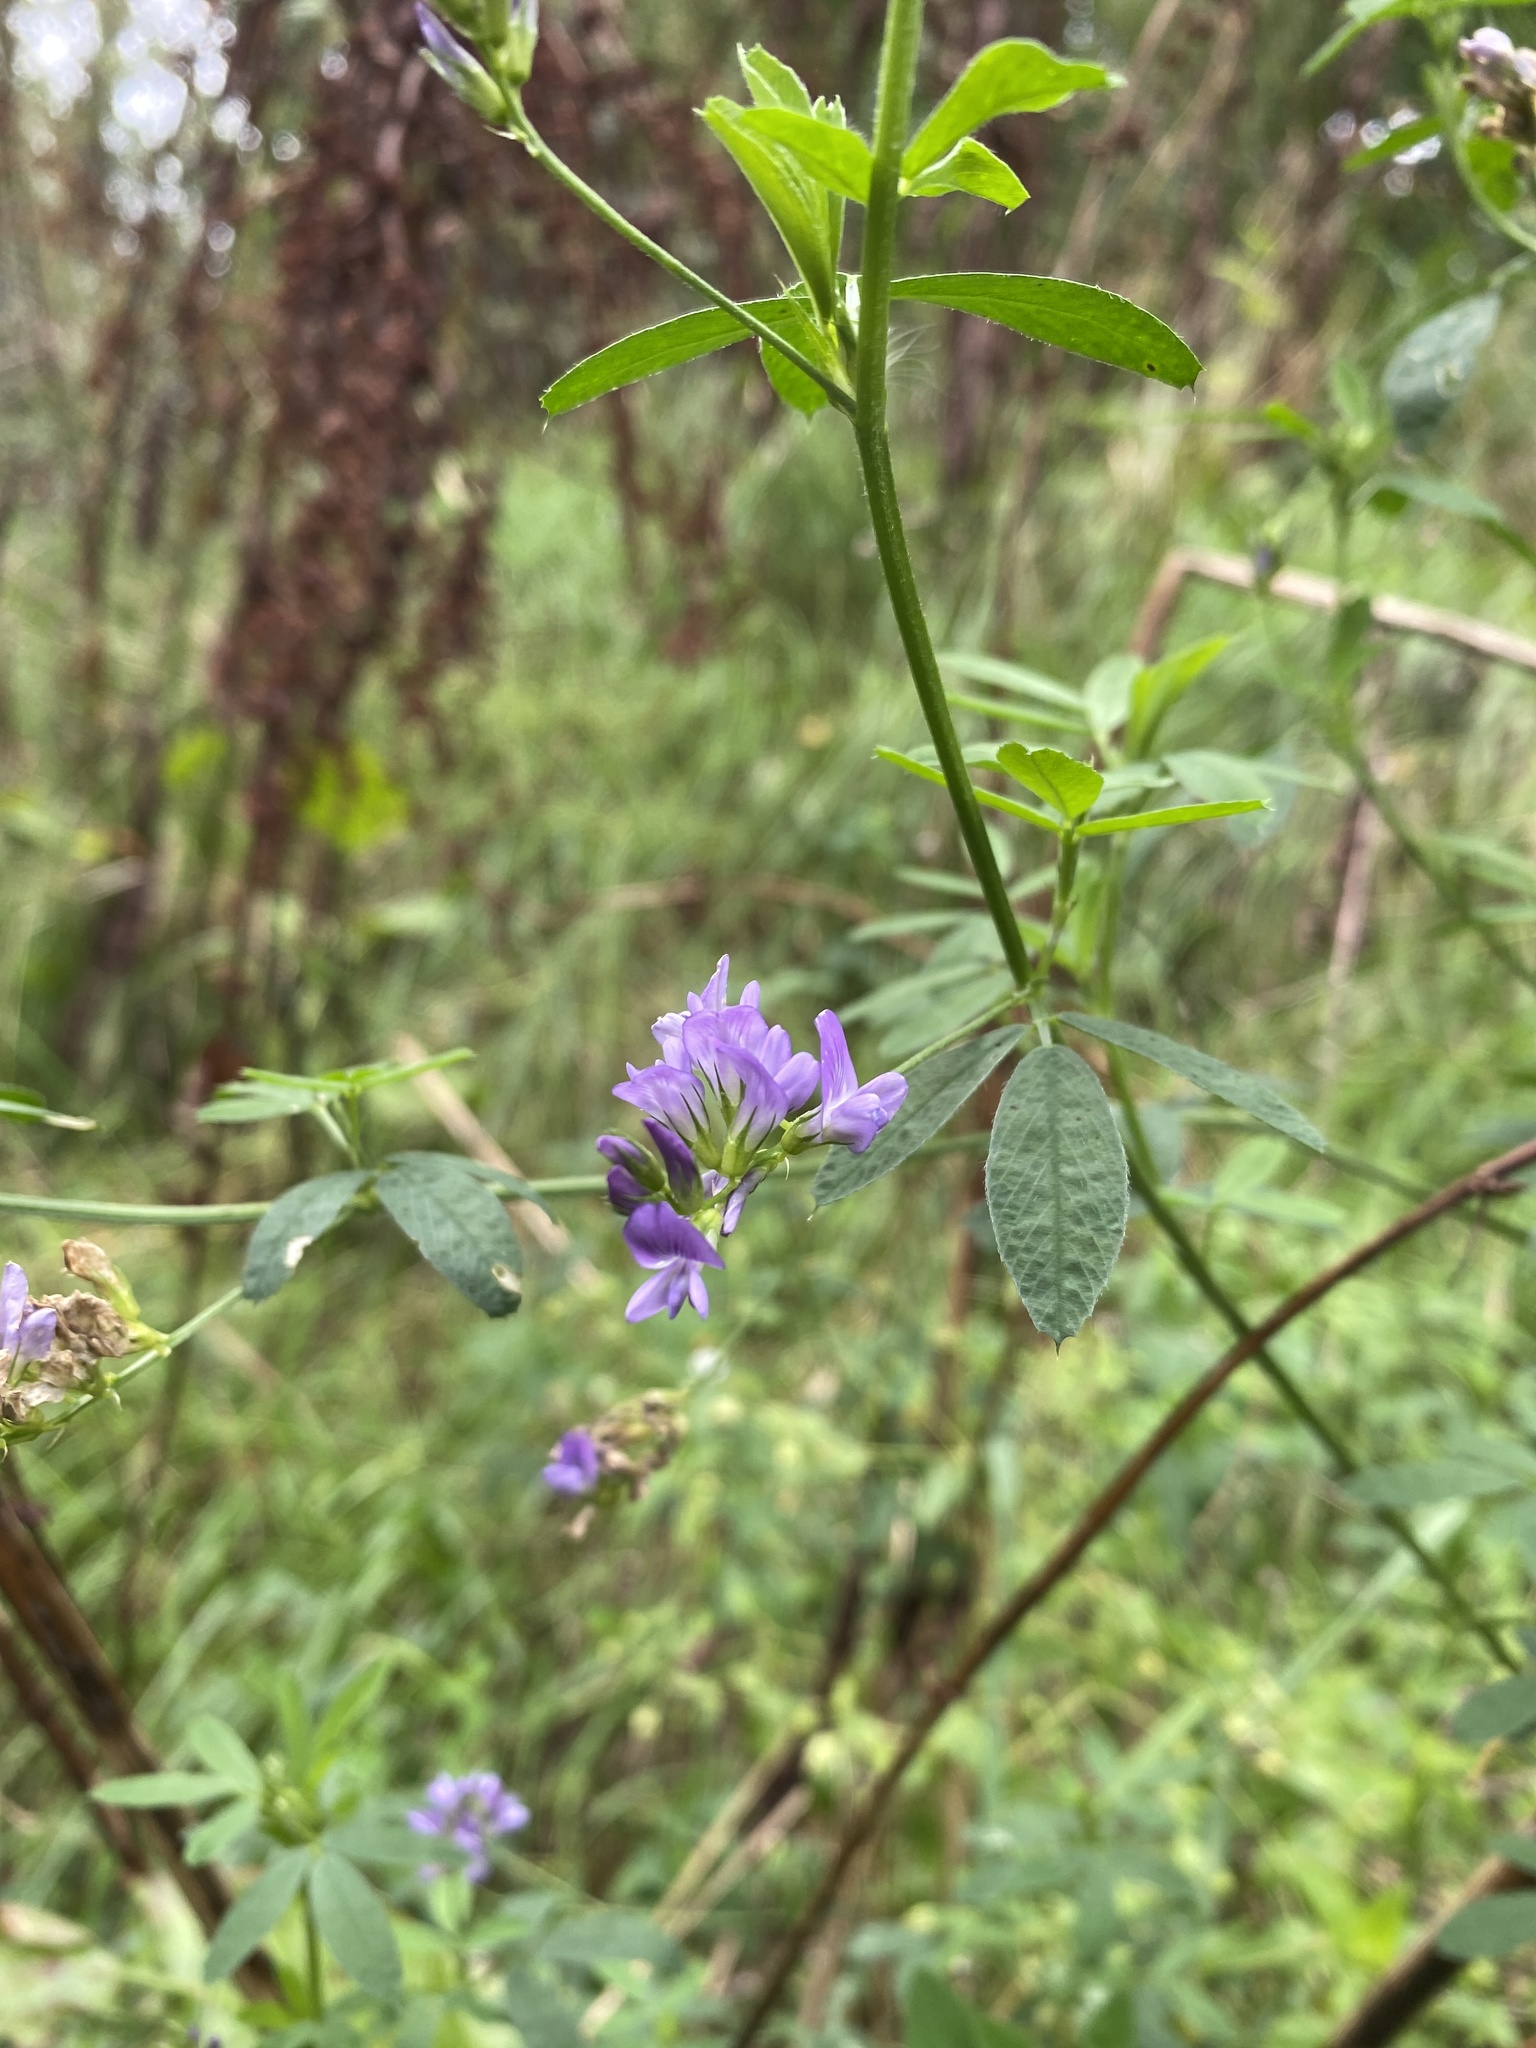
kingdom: Plantae
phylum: Tracheophyta
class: Magnoliopsida
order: Fabales
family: Fabaceae
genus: Medicago
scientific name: Medicago sativa
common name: Alfalfa
